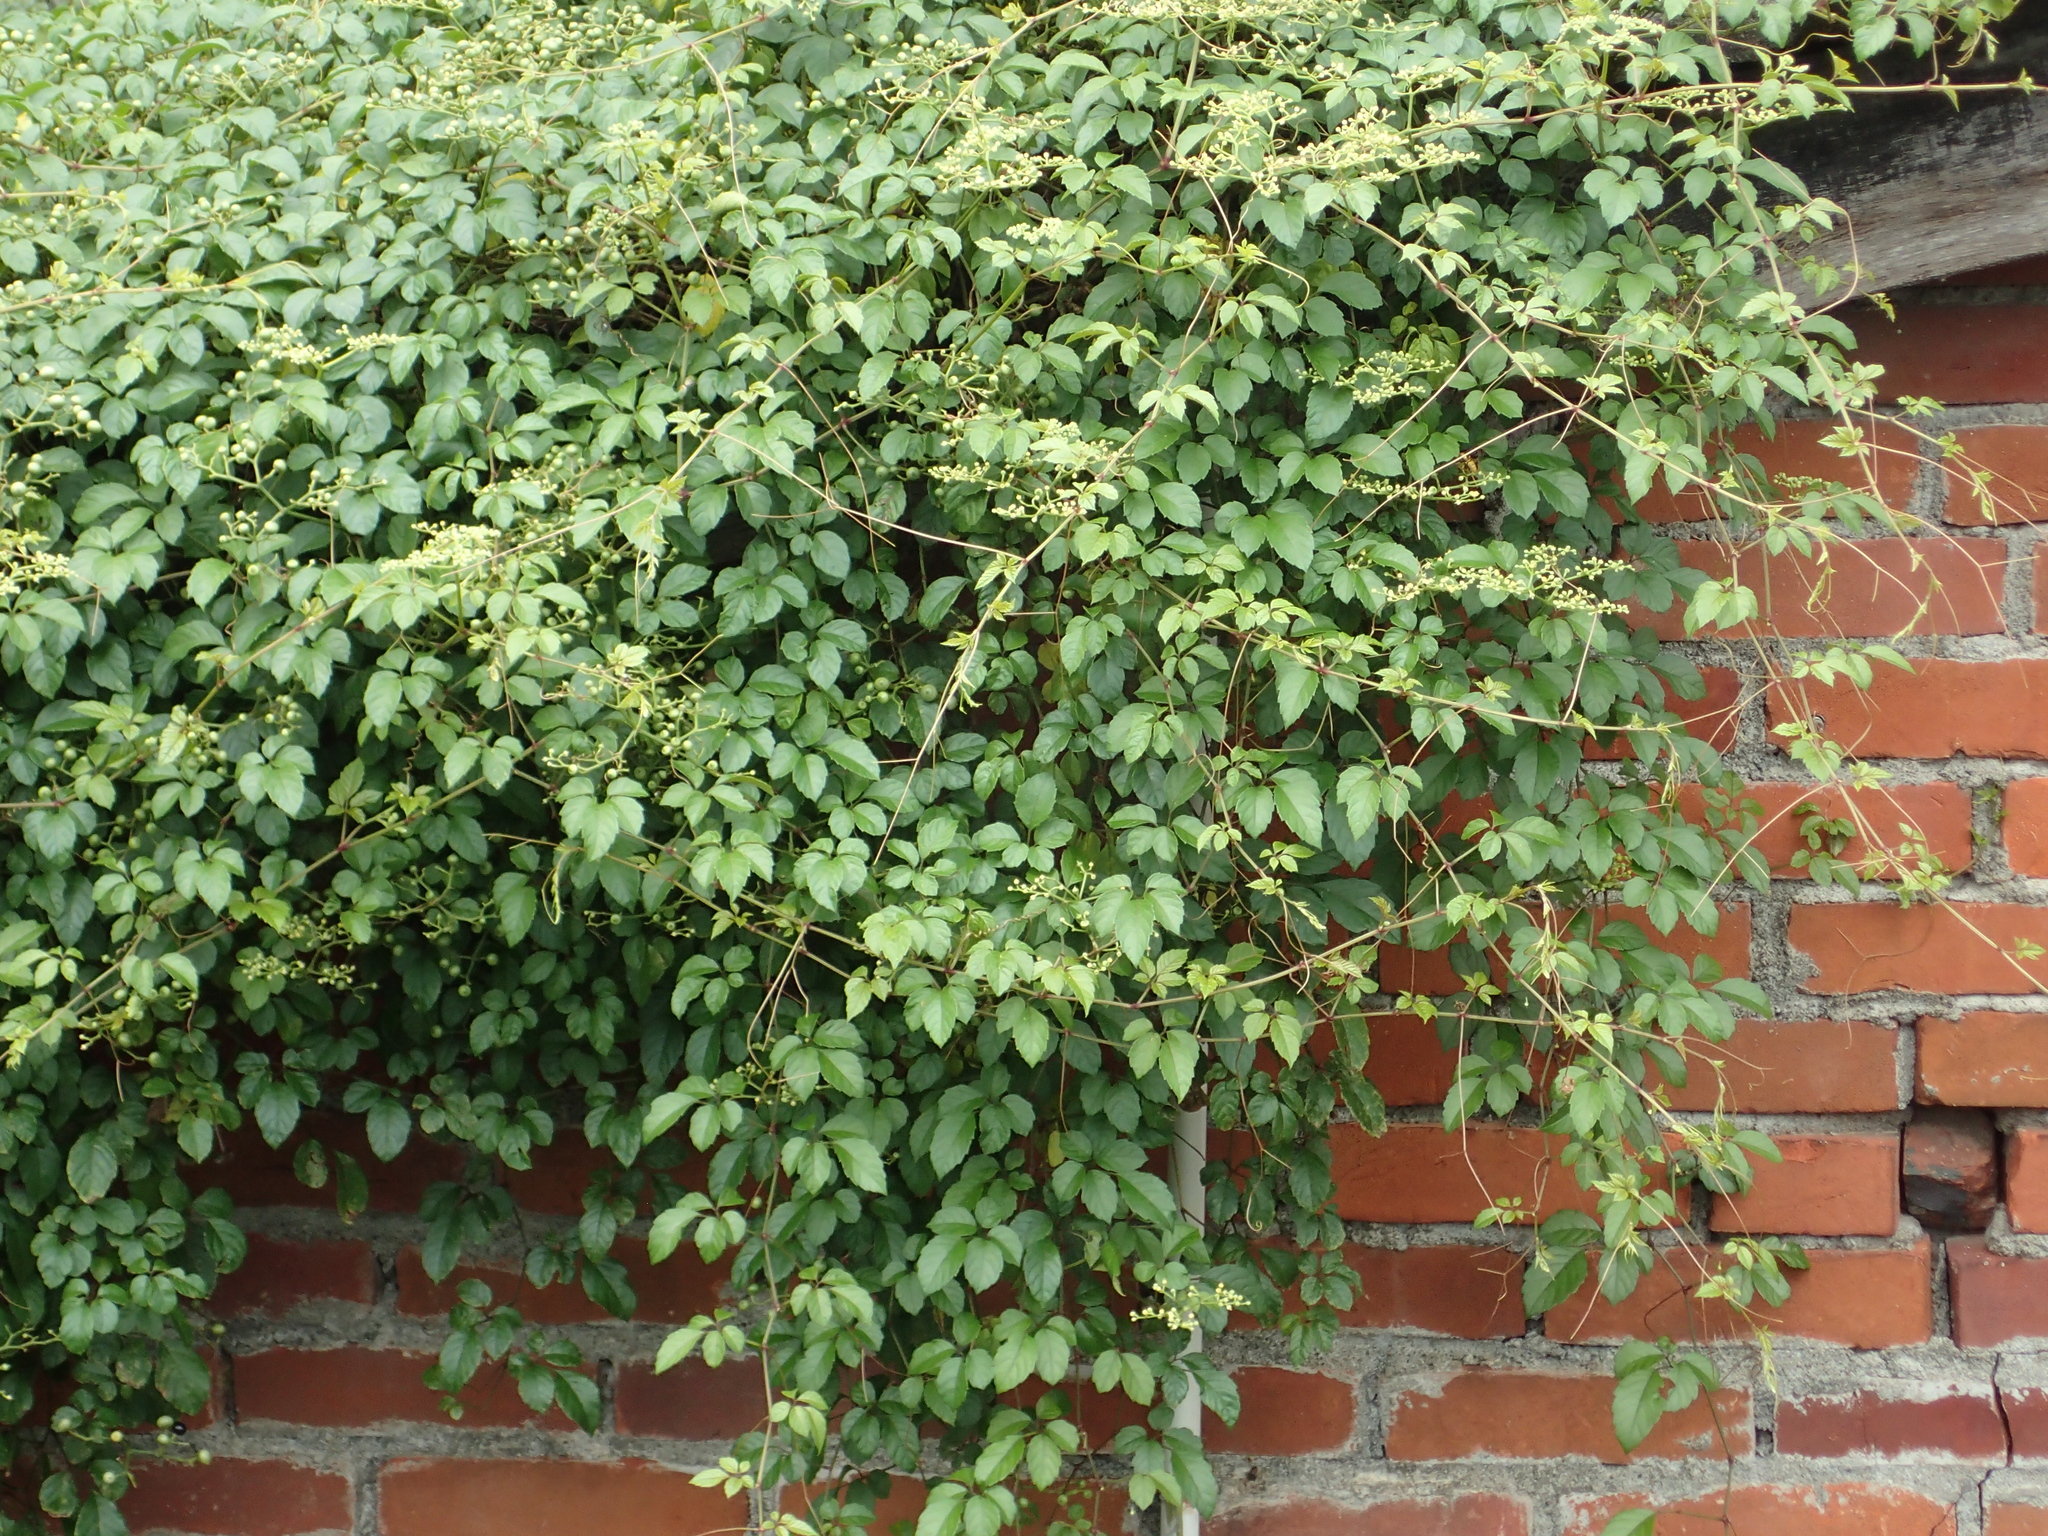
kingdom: Plantae
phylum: Tracheophyta
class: Magnoliopsida
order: Vitales
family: Vitaceae
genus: Causonis
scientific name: Causonis japonica
